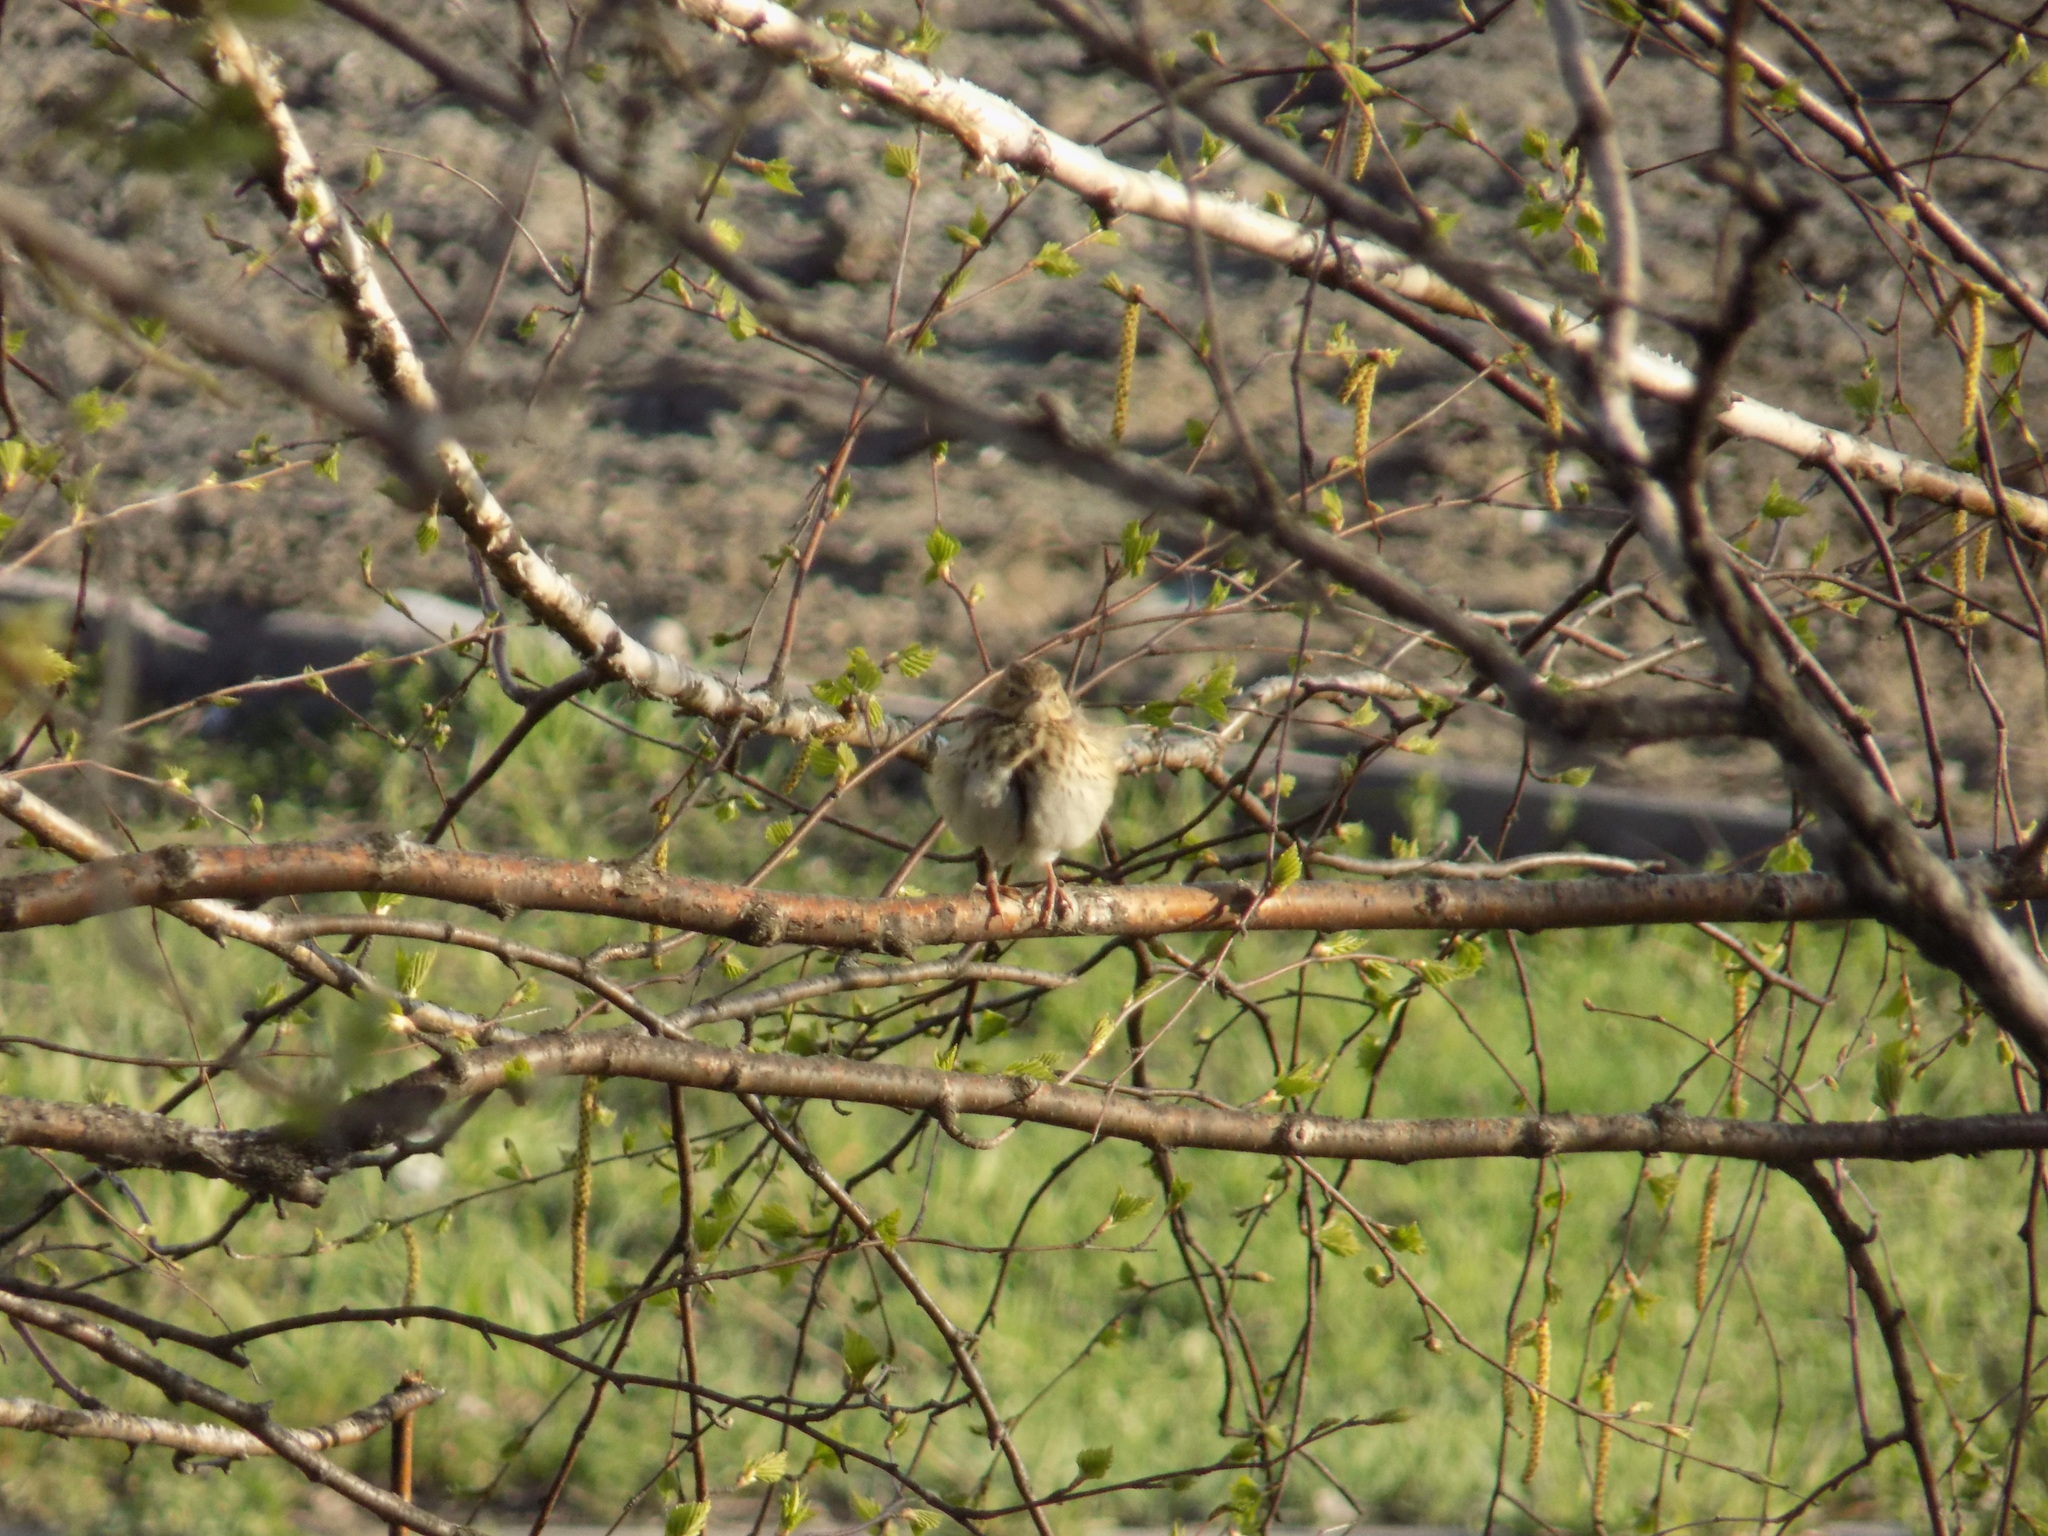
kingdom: Animalia
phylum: Chordata
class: Aves
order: Passeriformes
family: Motacillidae
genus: Anthus
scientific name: Anthus trivialis
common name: Tree pipit
